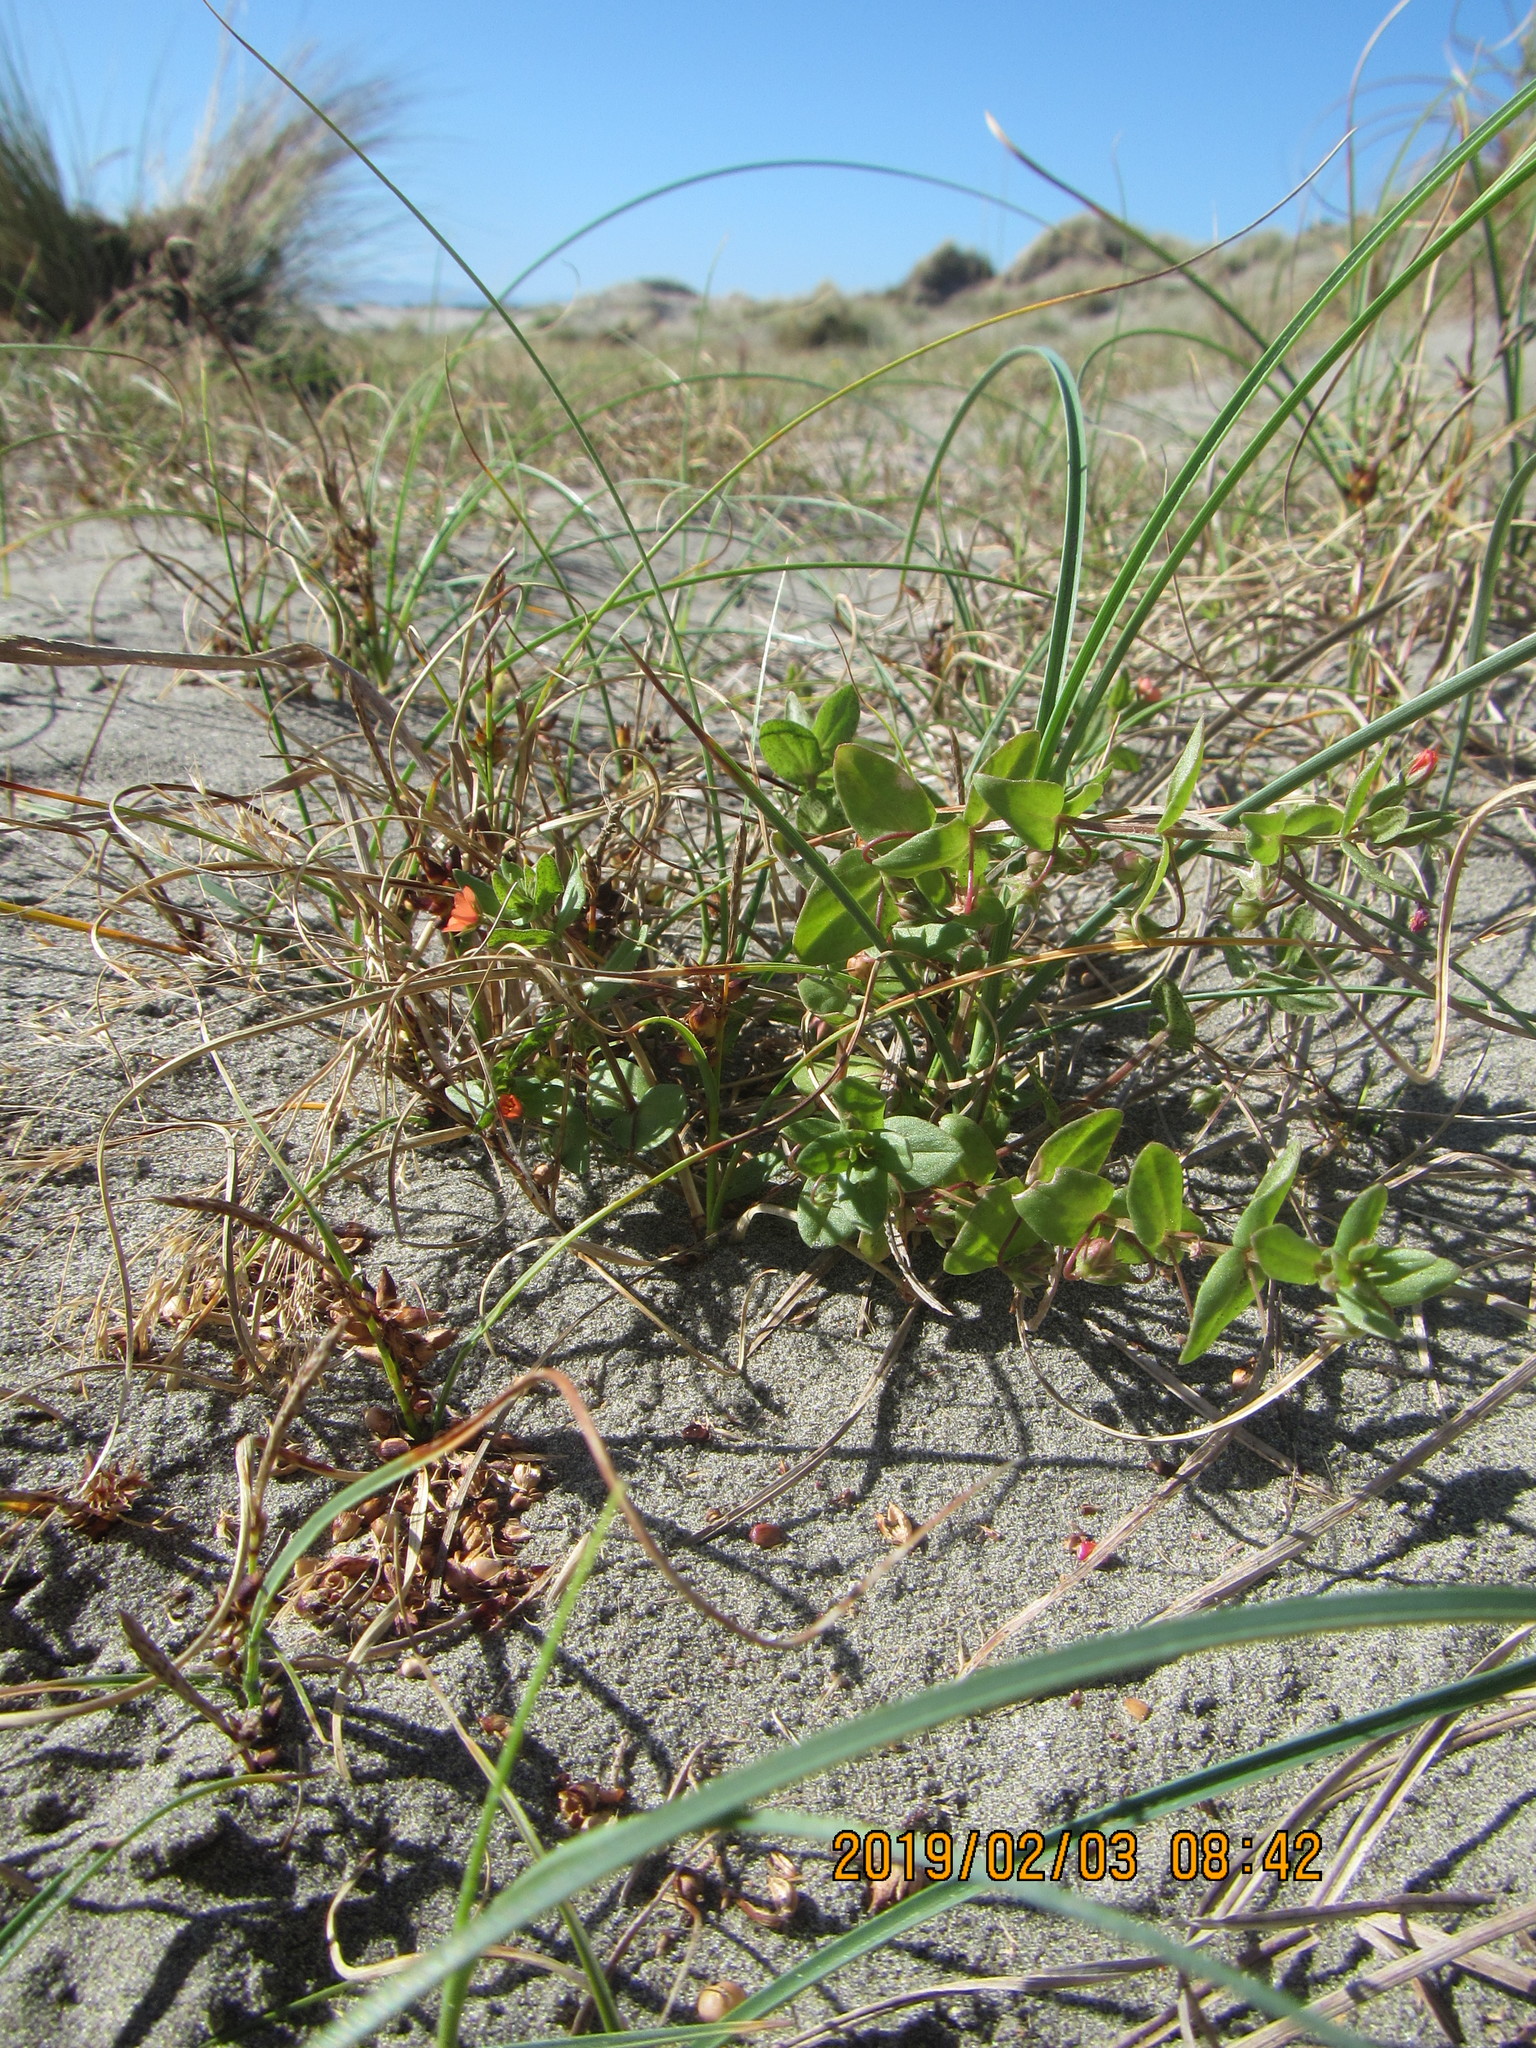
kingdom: Plantae
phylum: Tracheophyta
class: Magnoliopsida
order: Ericales
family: Primulaceae
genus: Lysimachia
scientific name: Lysimachia arvensis
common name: Scarlet pimpernel
